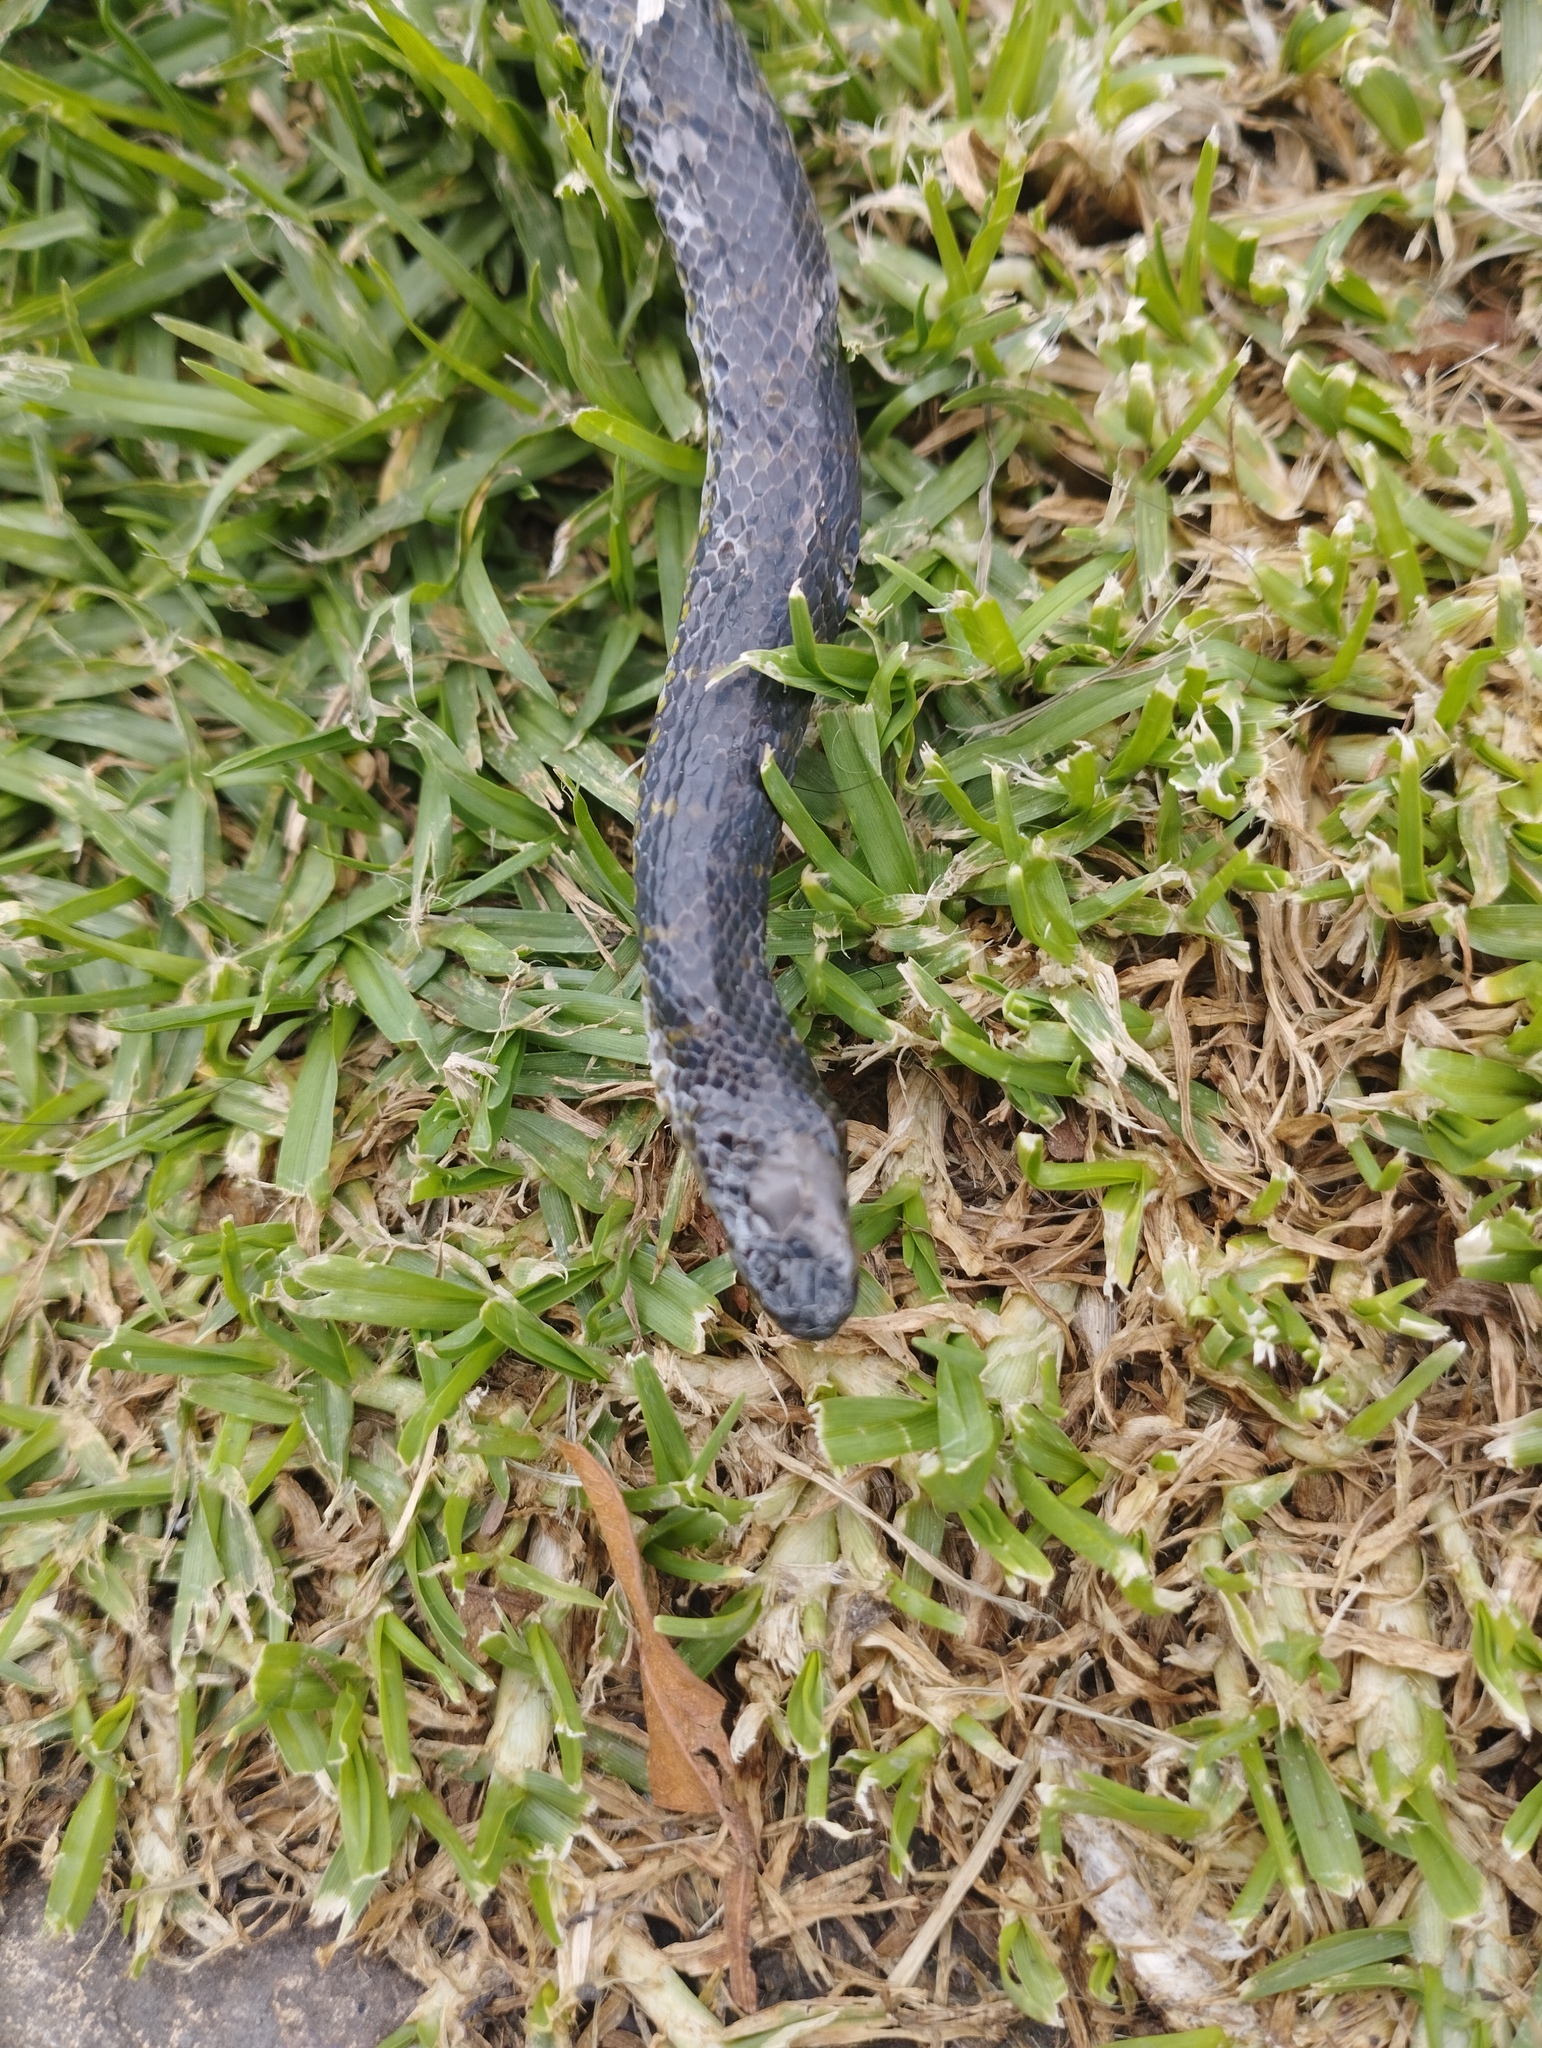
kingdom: Animalia
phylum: Chordata
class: Squamata
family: Colubridae
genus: Atractus
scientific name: Atractus crassicaudatus
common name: Thickhead ground snake
